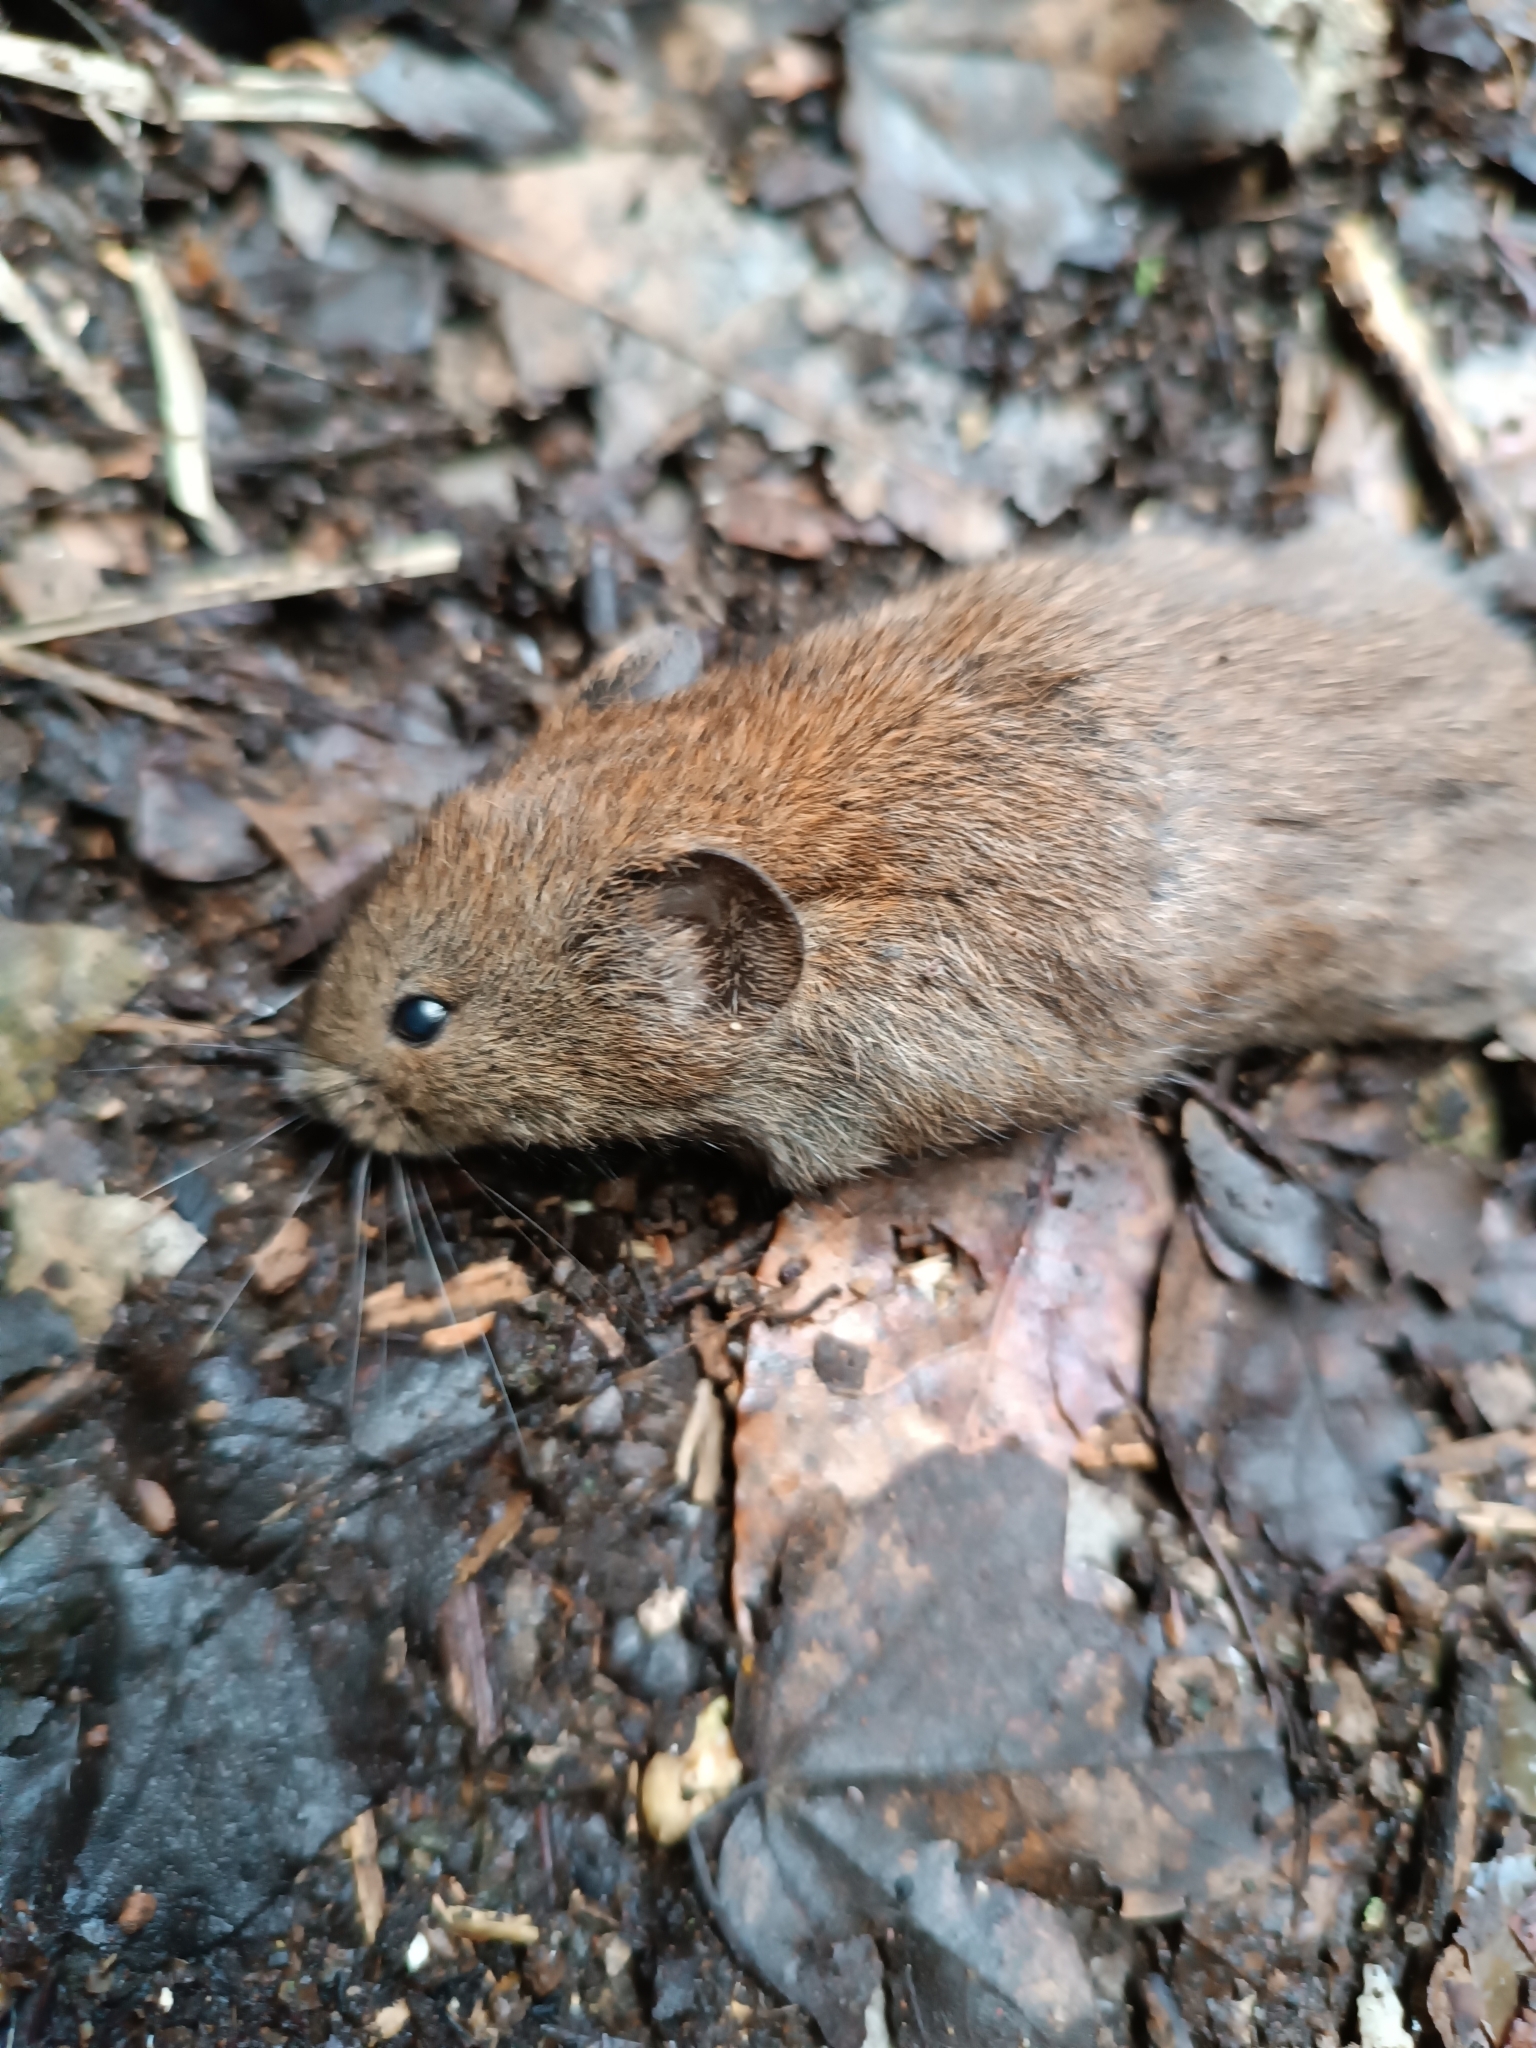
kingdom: Animalia
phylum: Chordata
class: Mammalia
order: Rodentia
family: Cricetidae
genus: Myodes
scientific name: Myodes glareolus
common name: Bank vole
